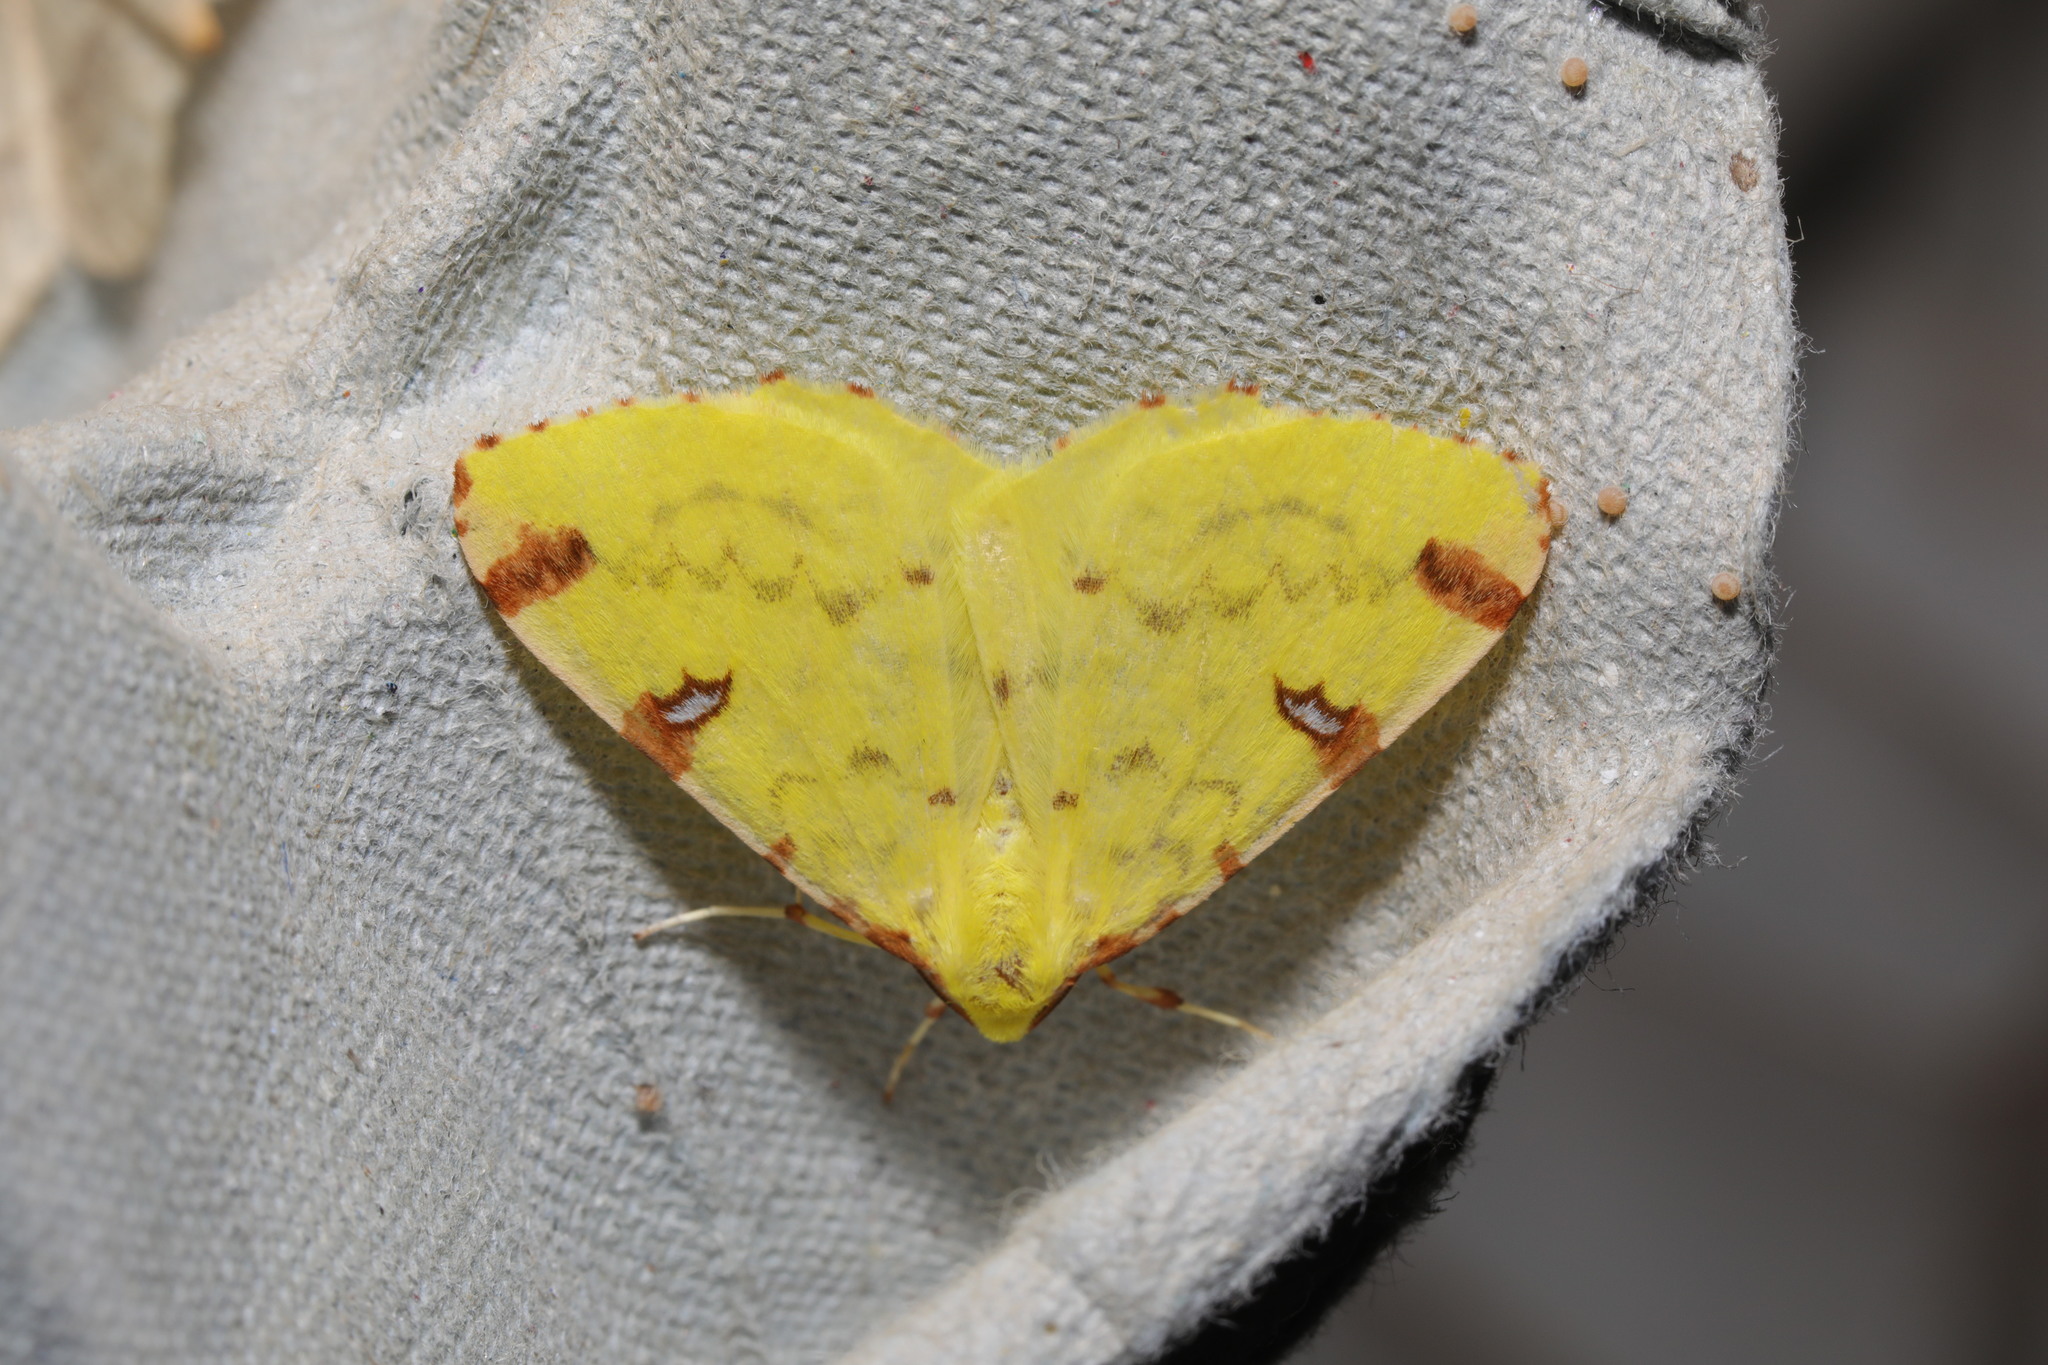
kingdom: Animalia
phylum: Arthropoda
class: Insecta
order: Lepidoptera
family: Geometridae
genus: Opisthograptis
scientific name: Opisthograptis luteolata
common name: Brimstone moth
